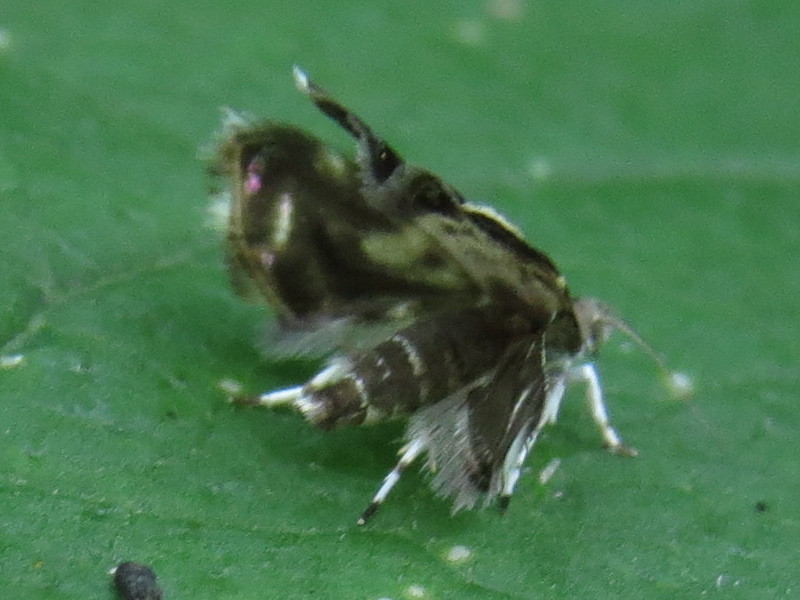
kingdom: Animalia
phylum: Arthropoda
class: Insecta
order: Lepidoptera
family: Choreutidae
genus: Brenthia
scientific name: Brenthia pavonacella
